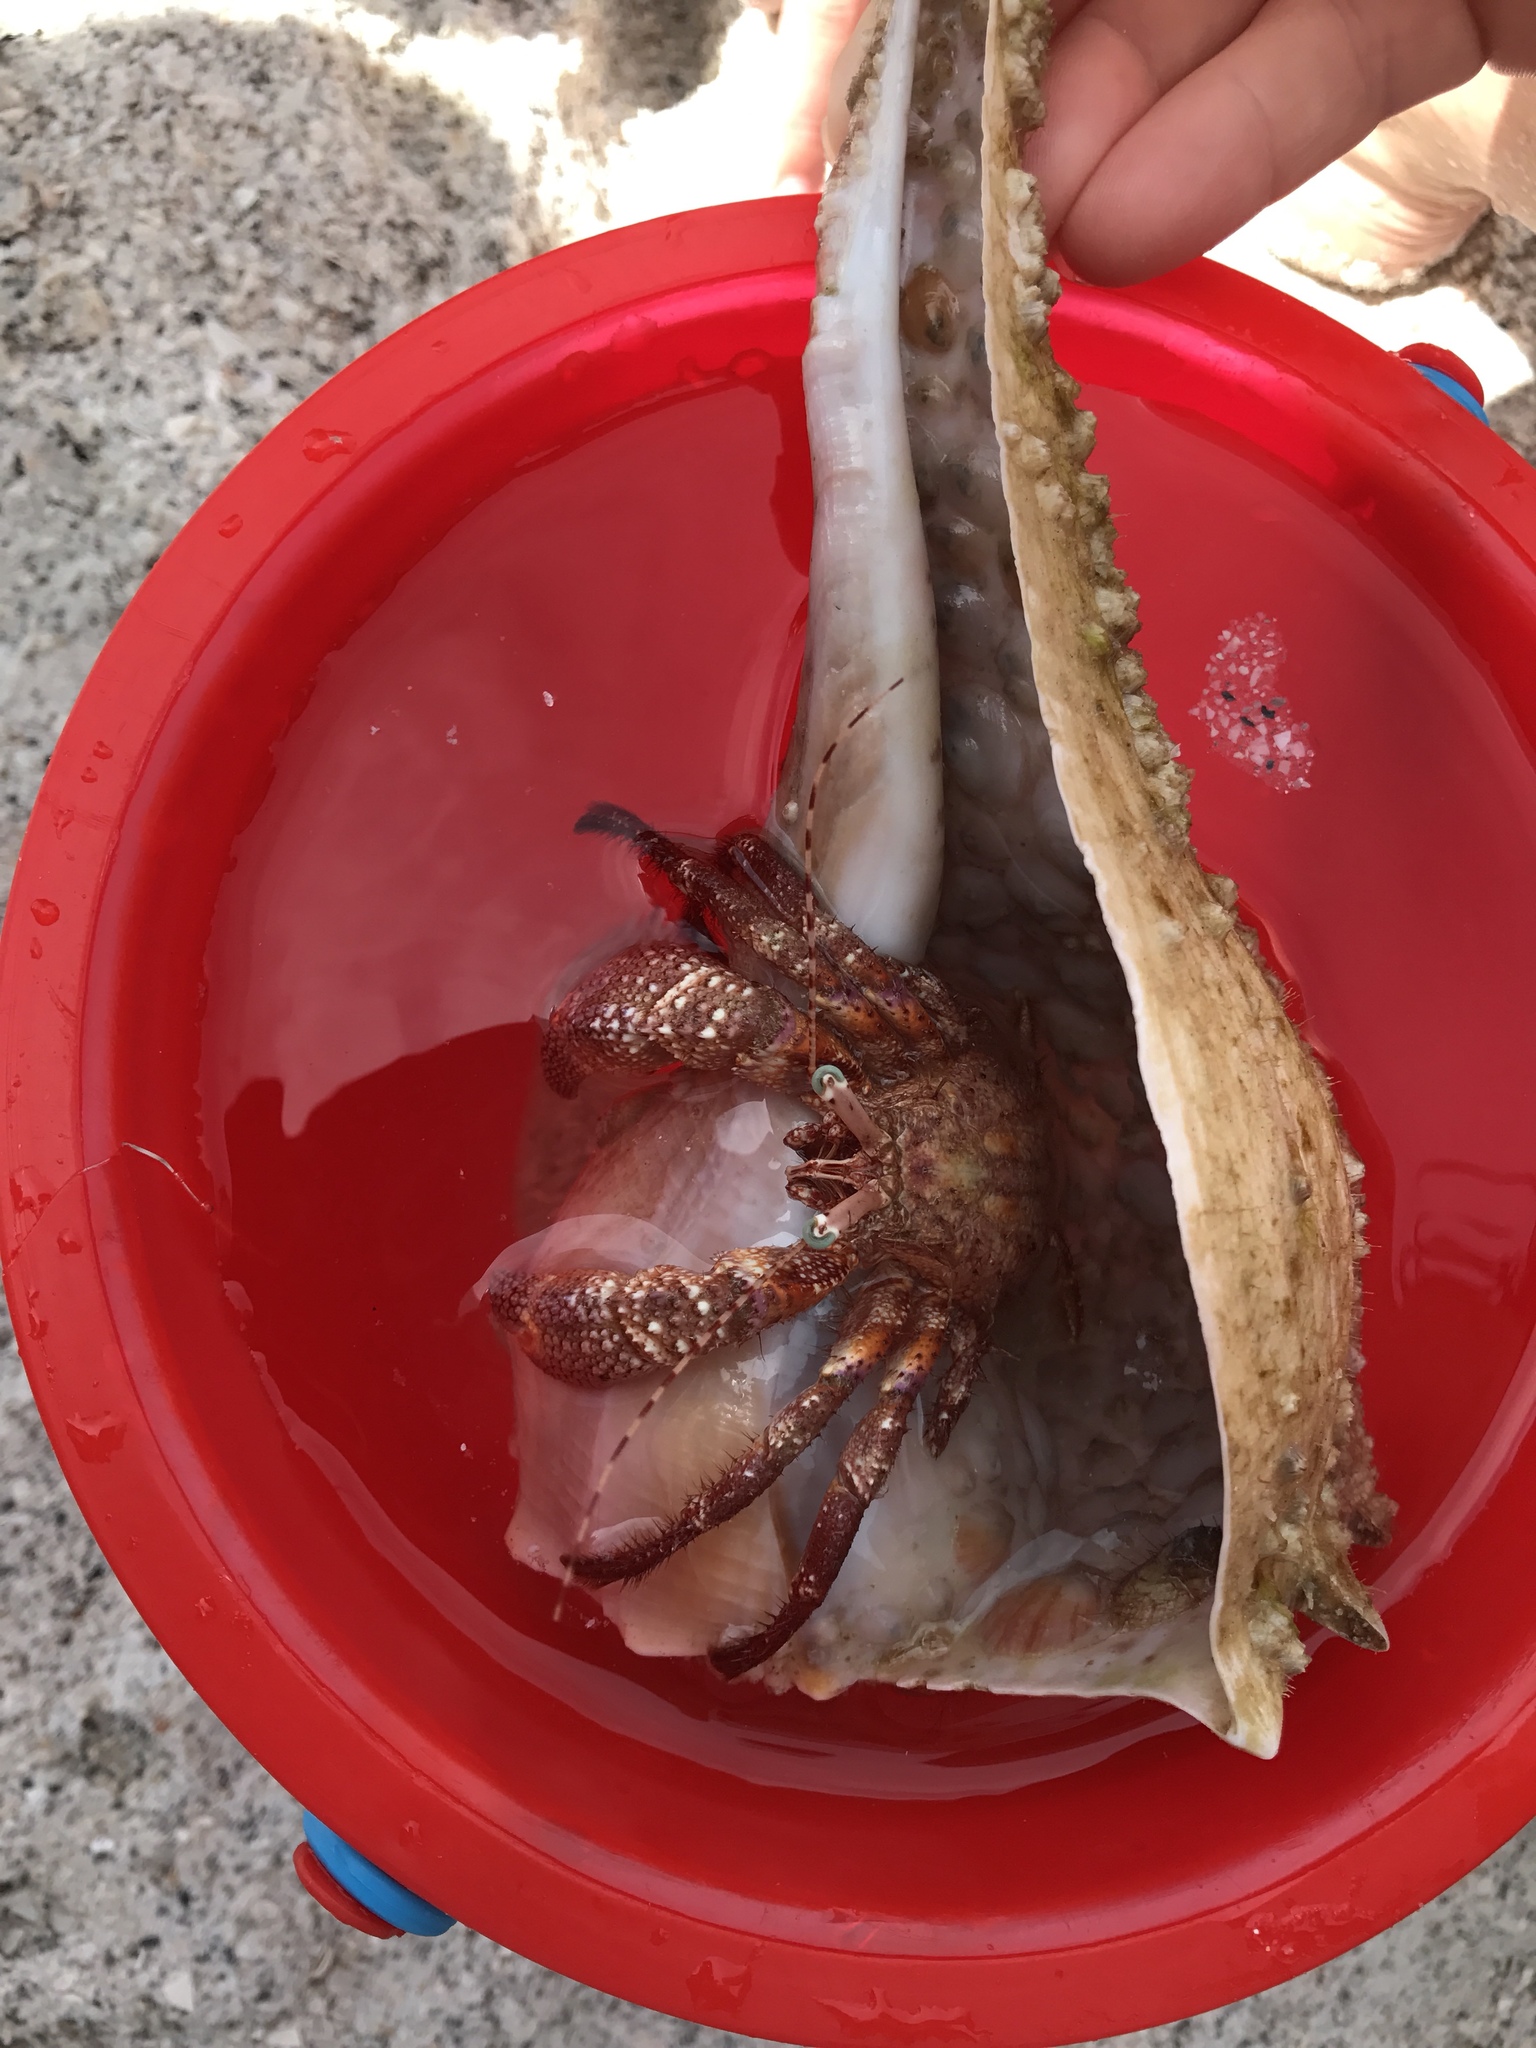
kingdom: Animalia
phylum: Arthropoda
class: Malacostraca
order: Decapoda
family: Diogenidae
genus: Petrochirus
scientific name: Petrochirus diogenes
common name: Giant hermit crab
